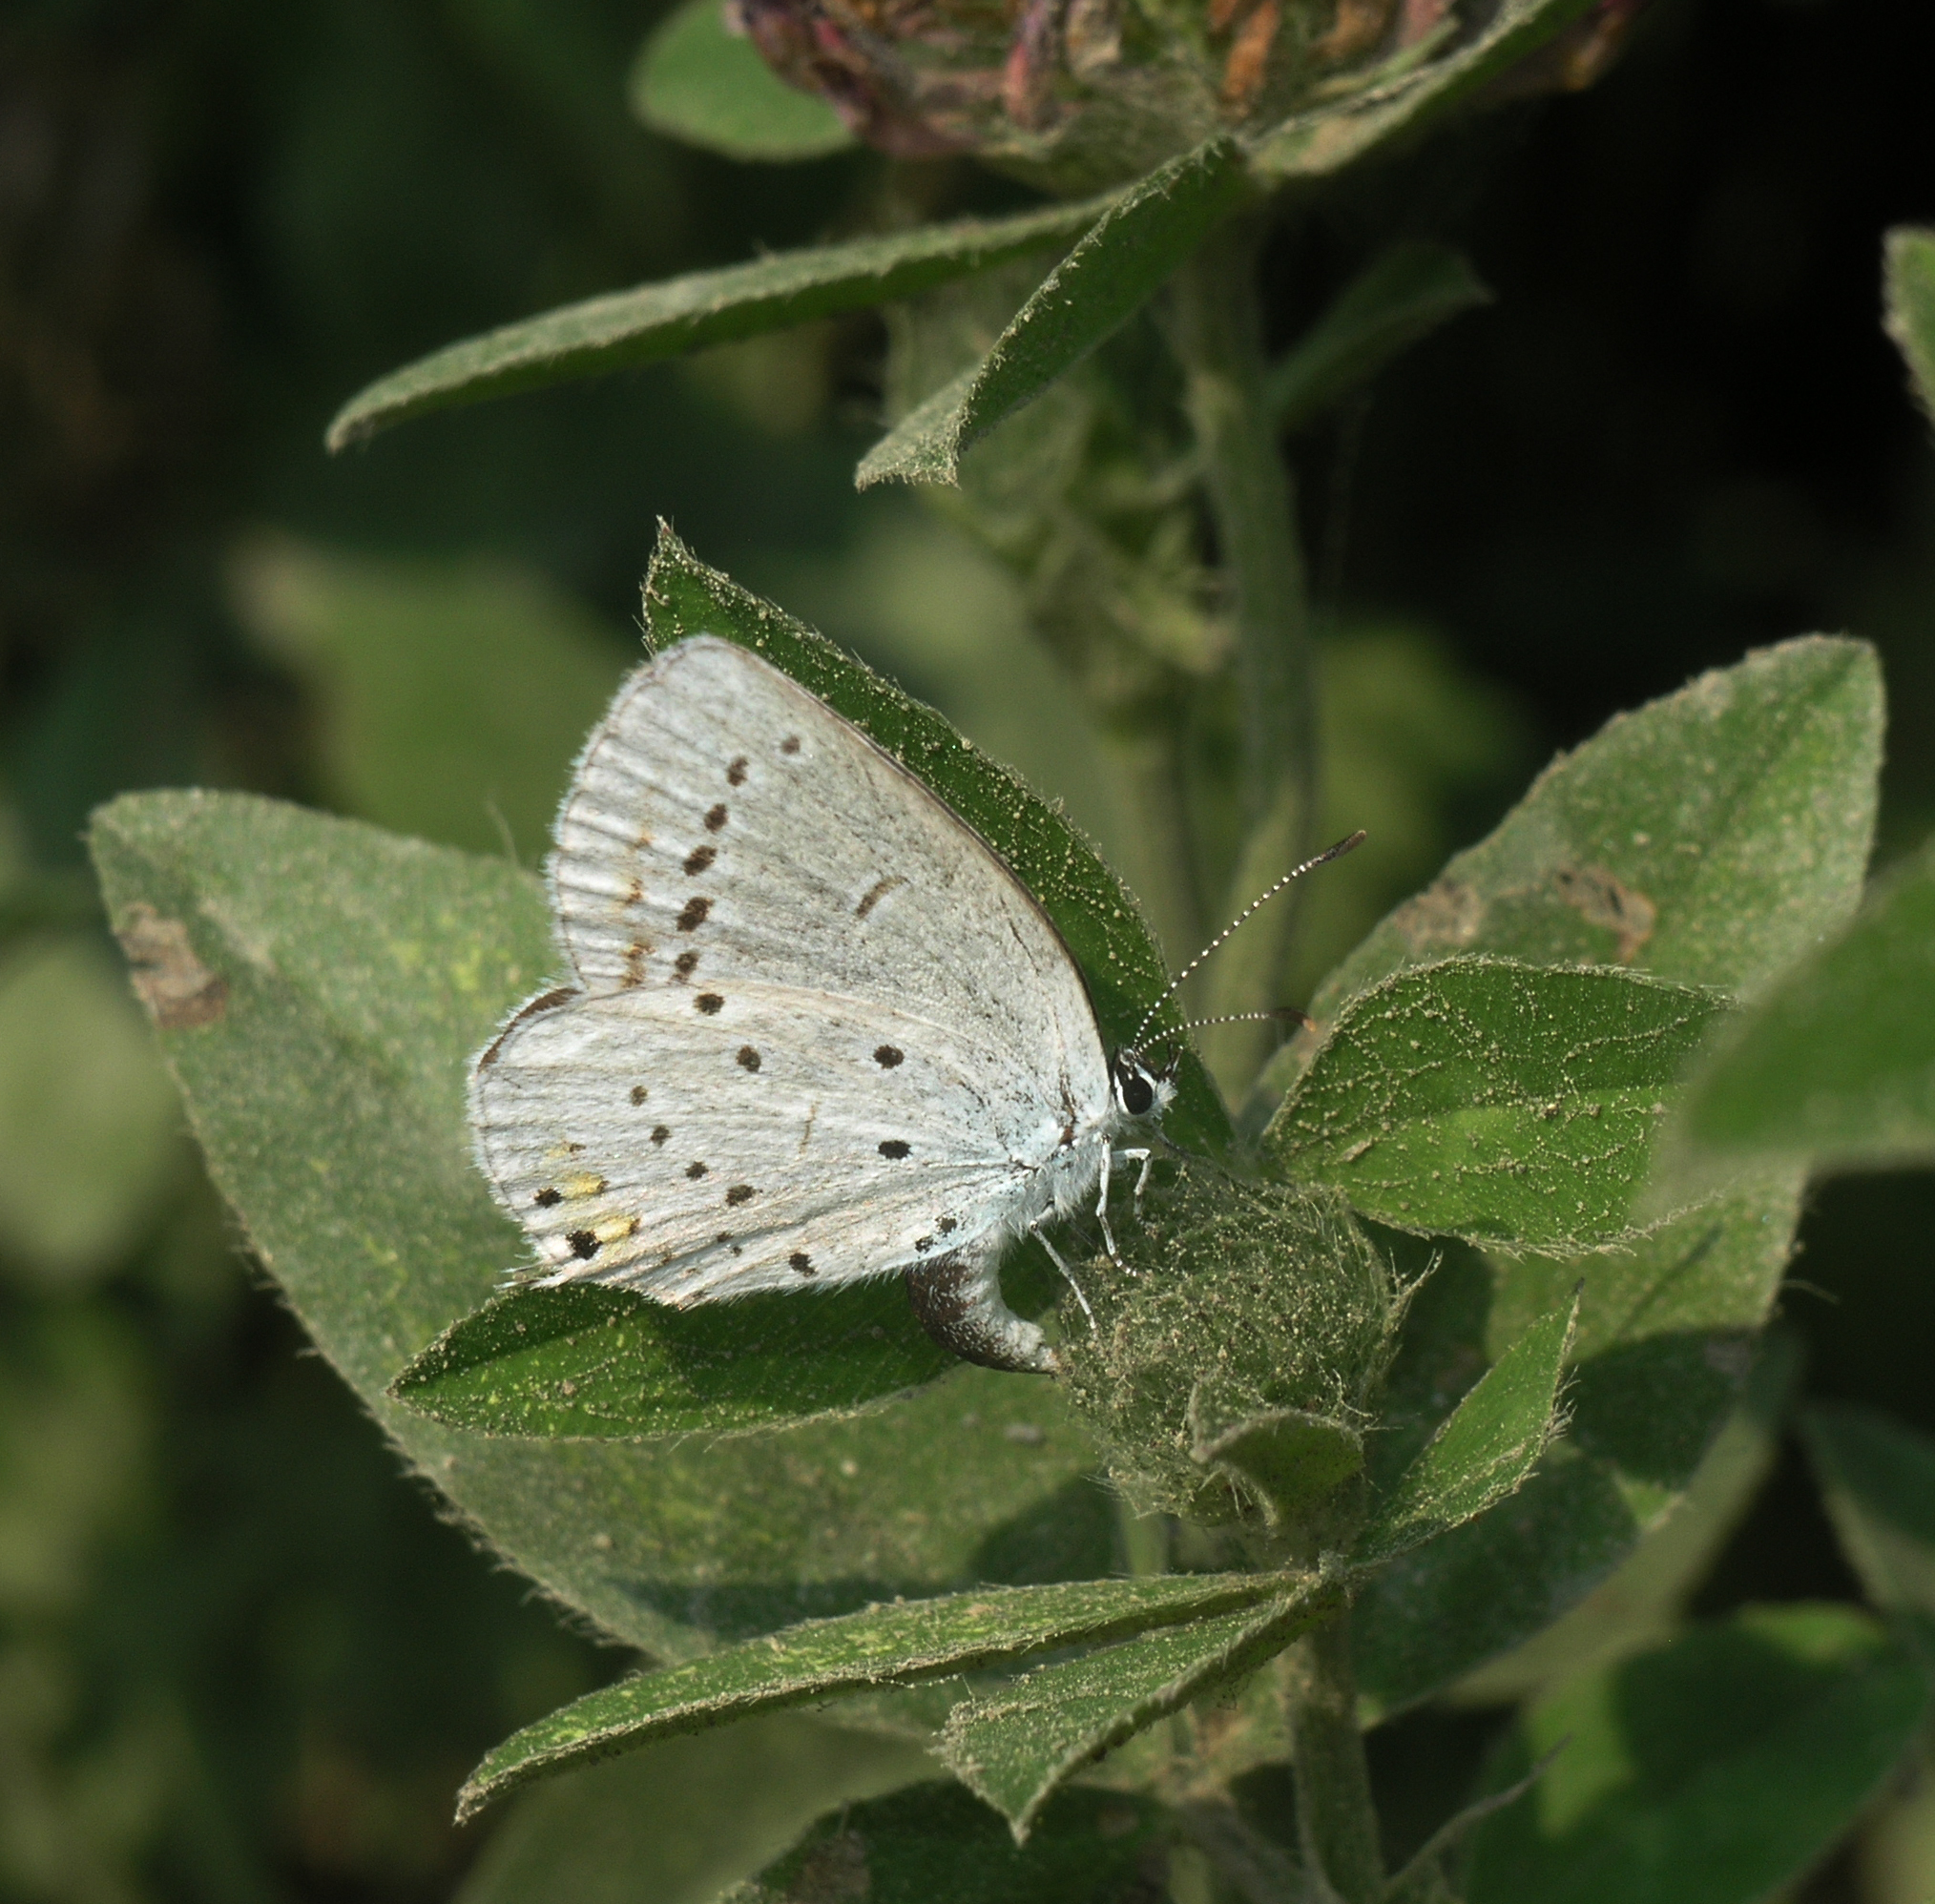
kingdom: Animalia
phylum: Arthropoda
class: Insecta
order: Lepidoptera
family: Lycaenidae
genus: Elkalyce
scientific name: Elkalyce argiades
